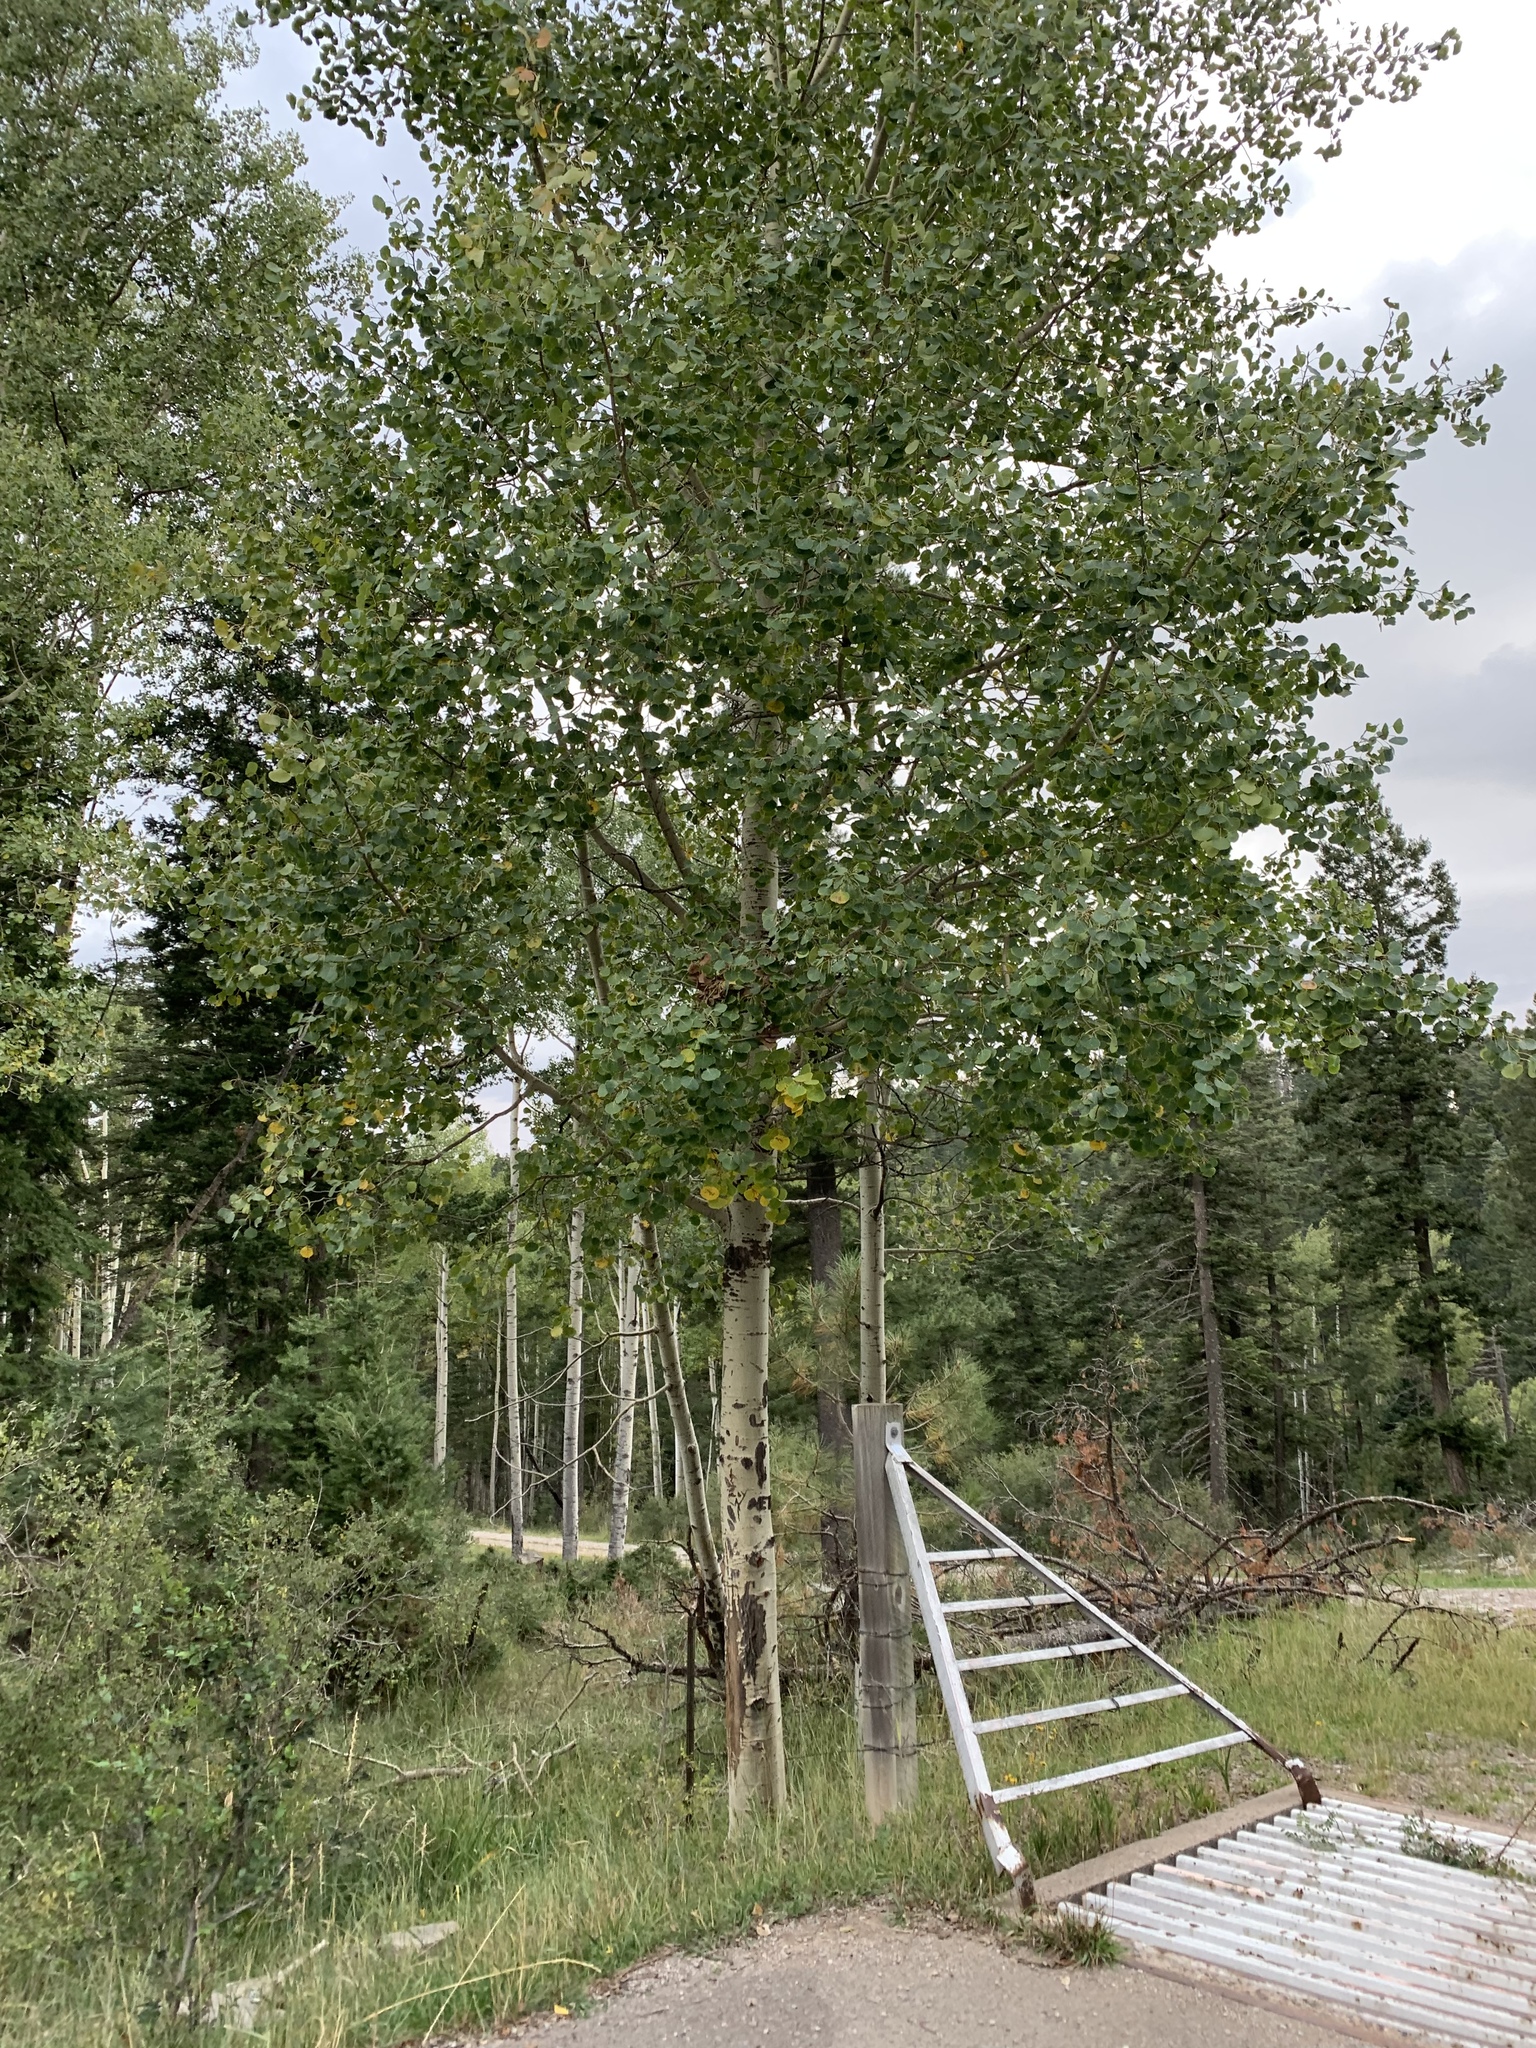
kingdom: Plantae
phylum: Tracheophyta
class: Magnoliopsida
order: Malpighiales
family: Salicaceae
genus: Populus
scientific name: Populus tremuloides
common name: Quaking aspen
